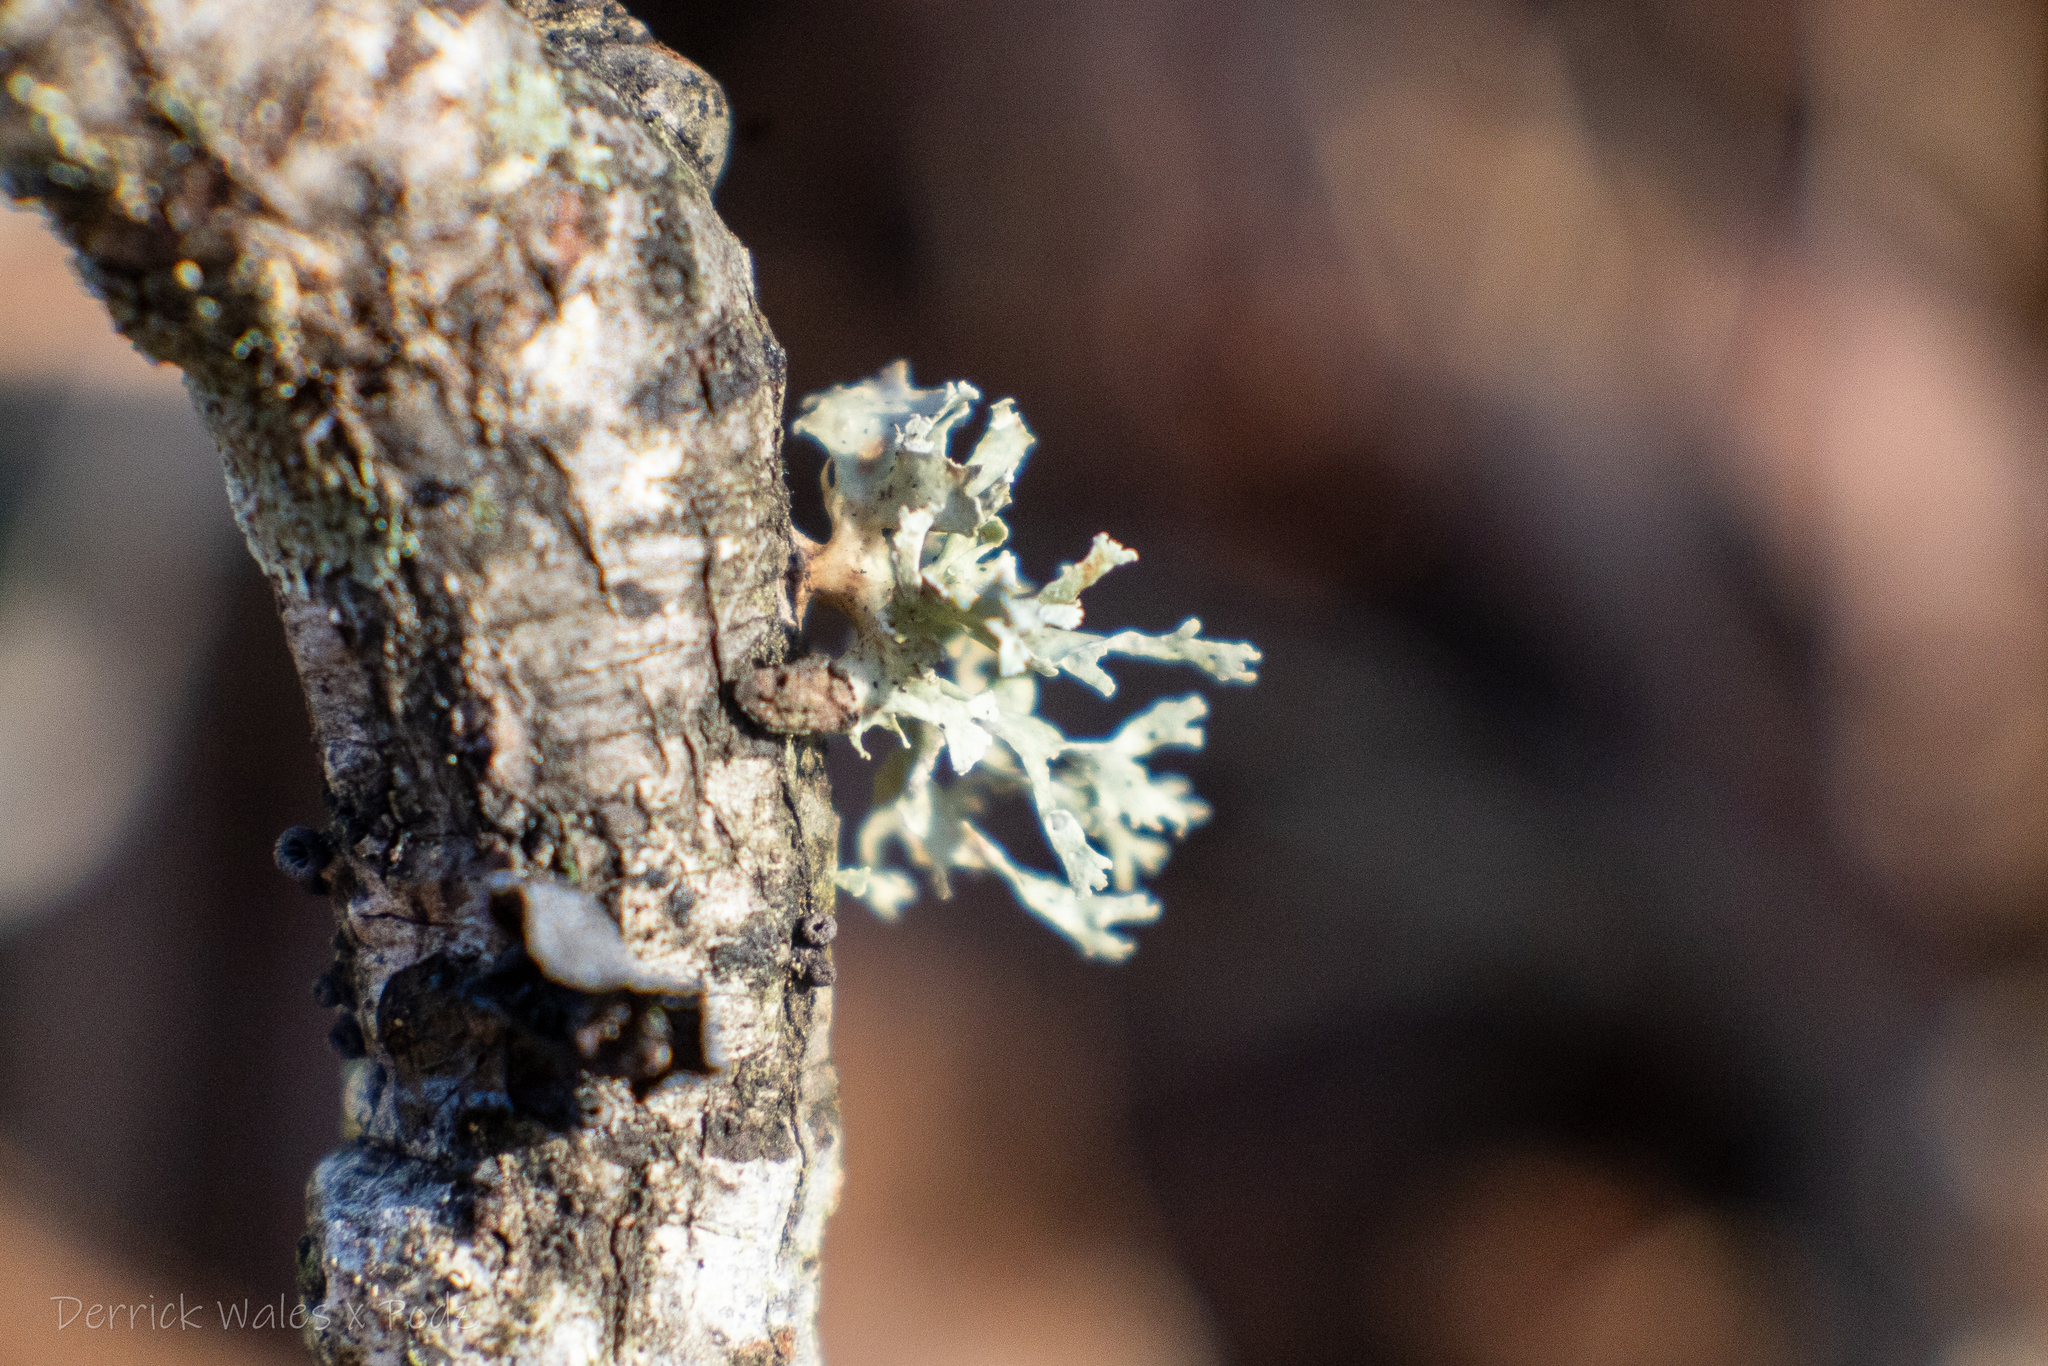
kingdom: Fungi
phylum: Ascomycota
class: Lecanoromycetes
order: Lecanorales
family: Ramalinaceae
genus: Ramalina
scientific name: Ramalina
